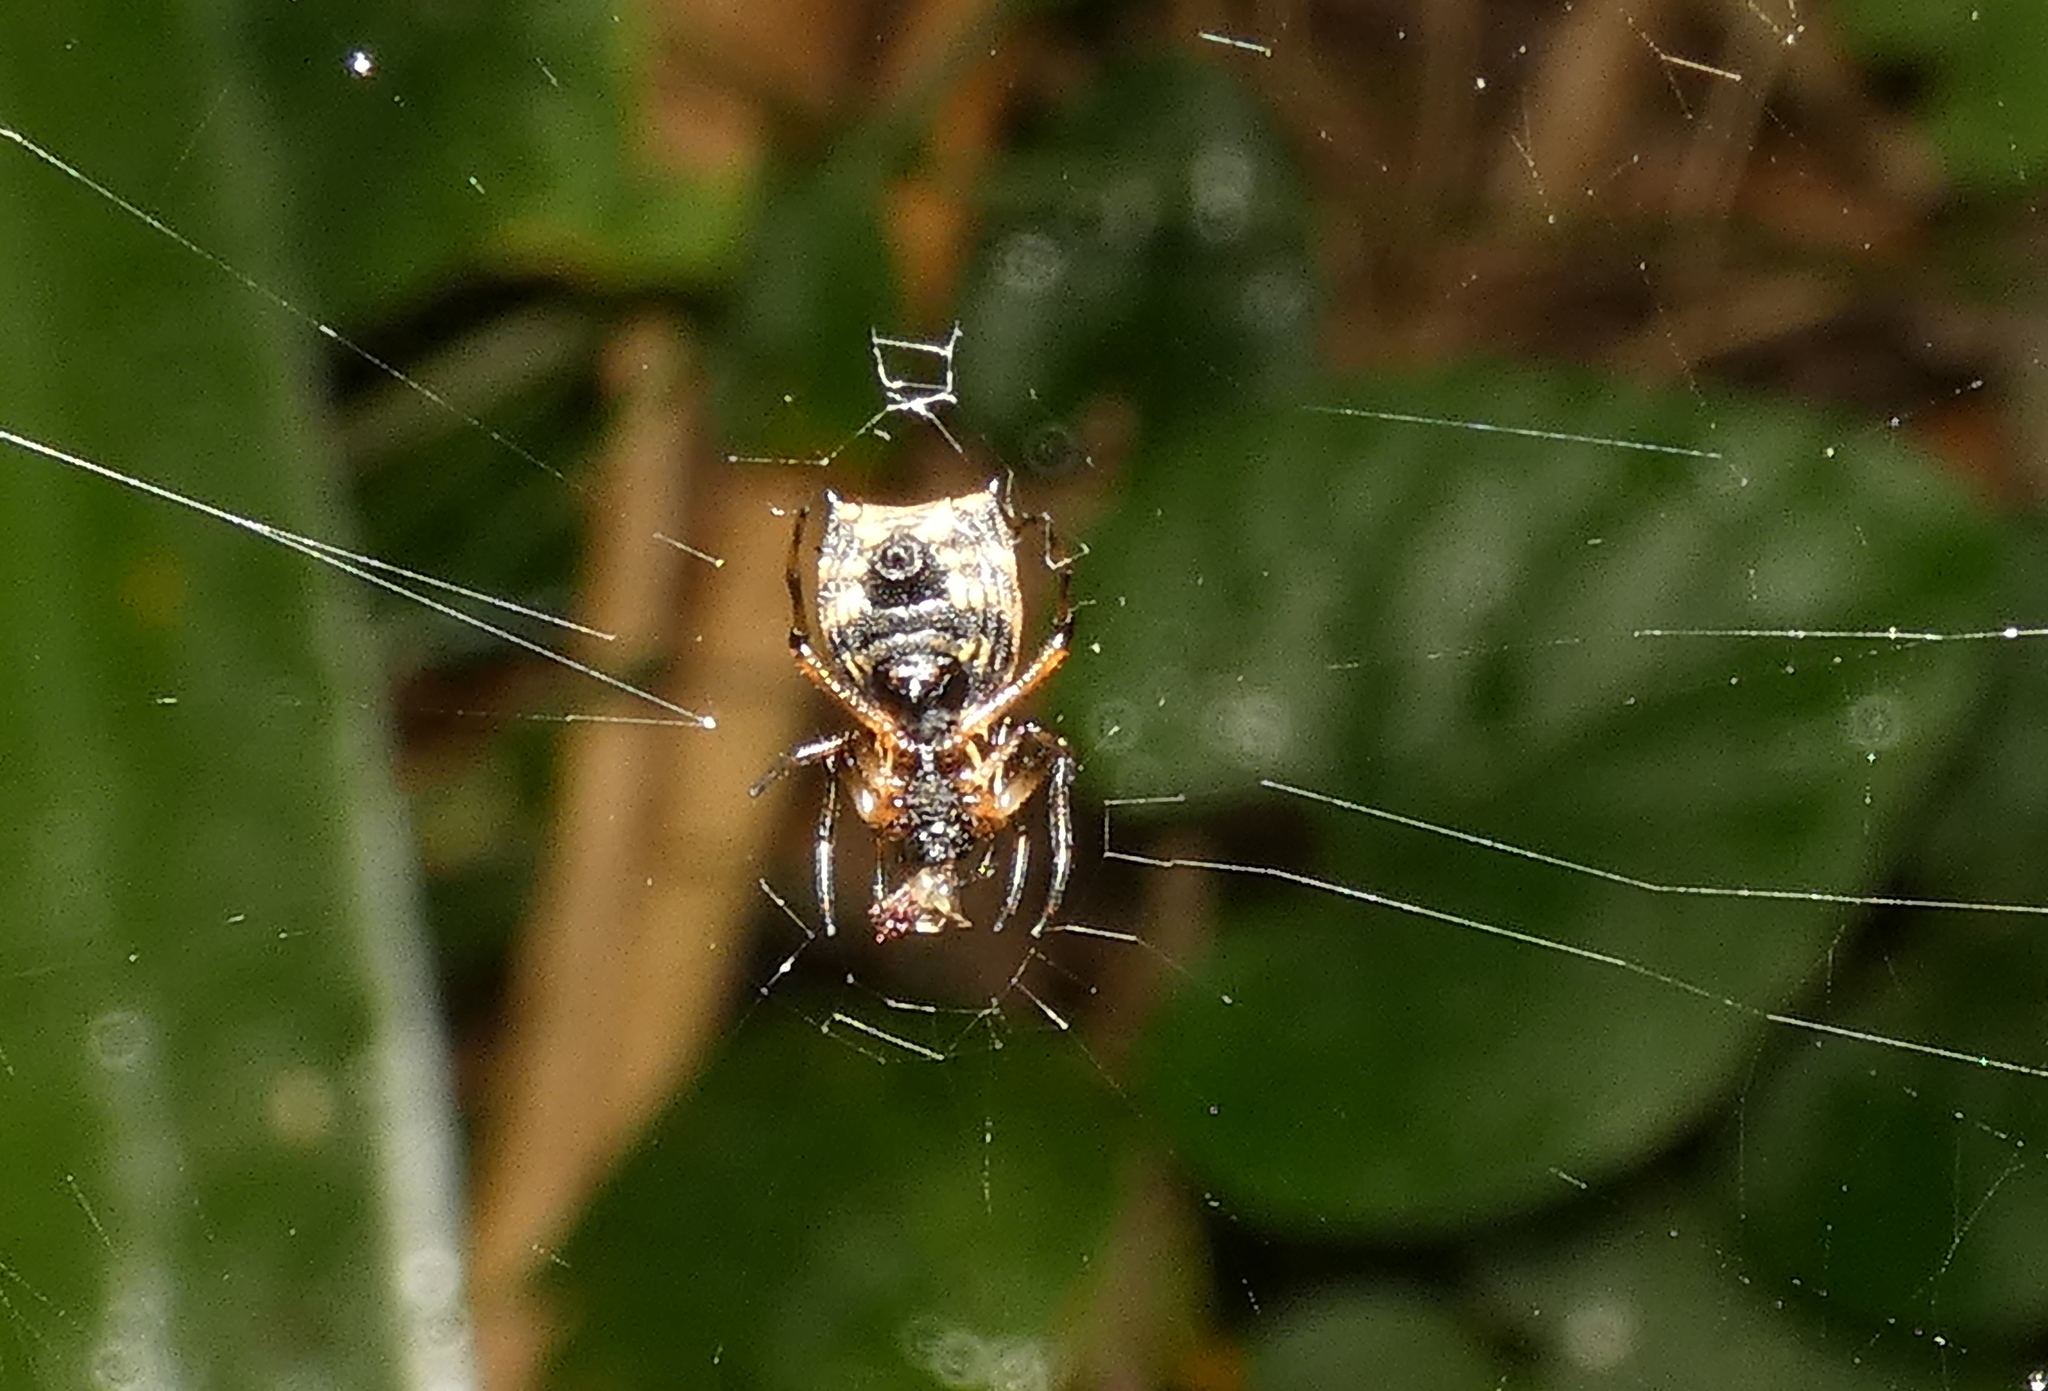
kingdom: Animalia
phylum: Arthropoda
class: Arachnida
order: Araneae
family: Araneidae
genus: Micrathena
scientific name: Micrathena picta
